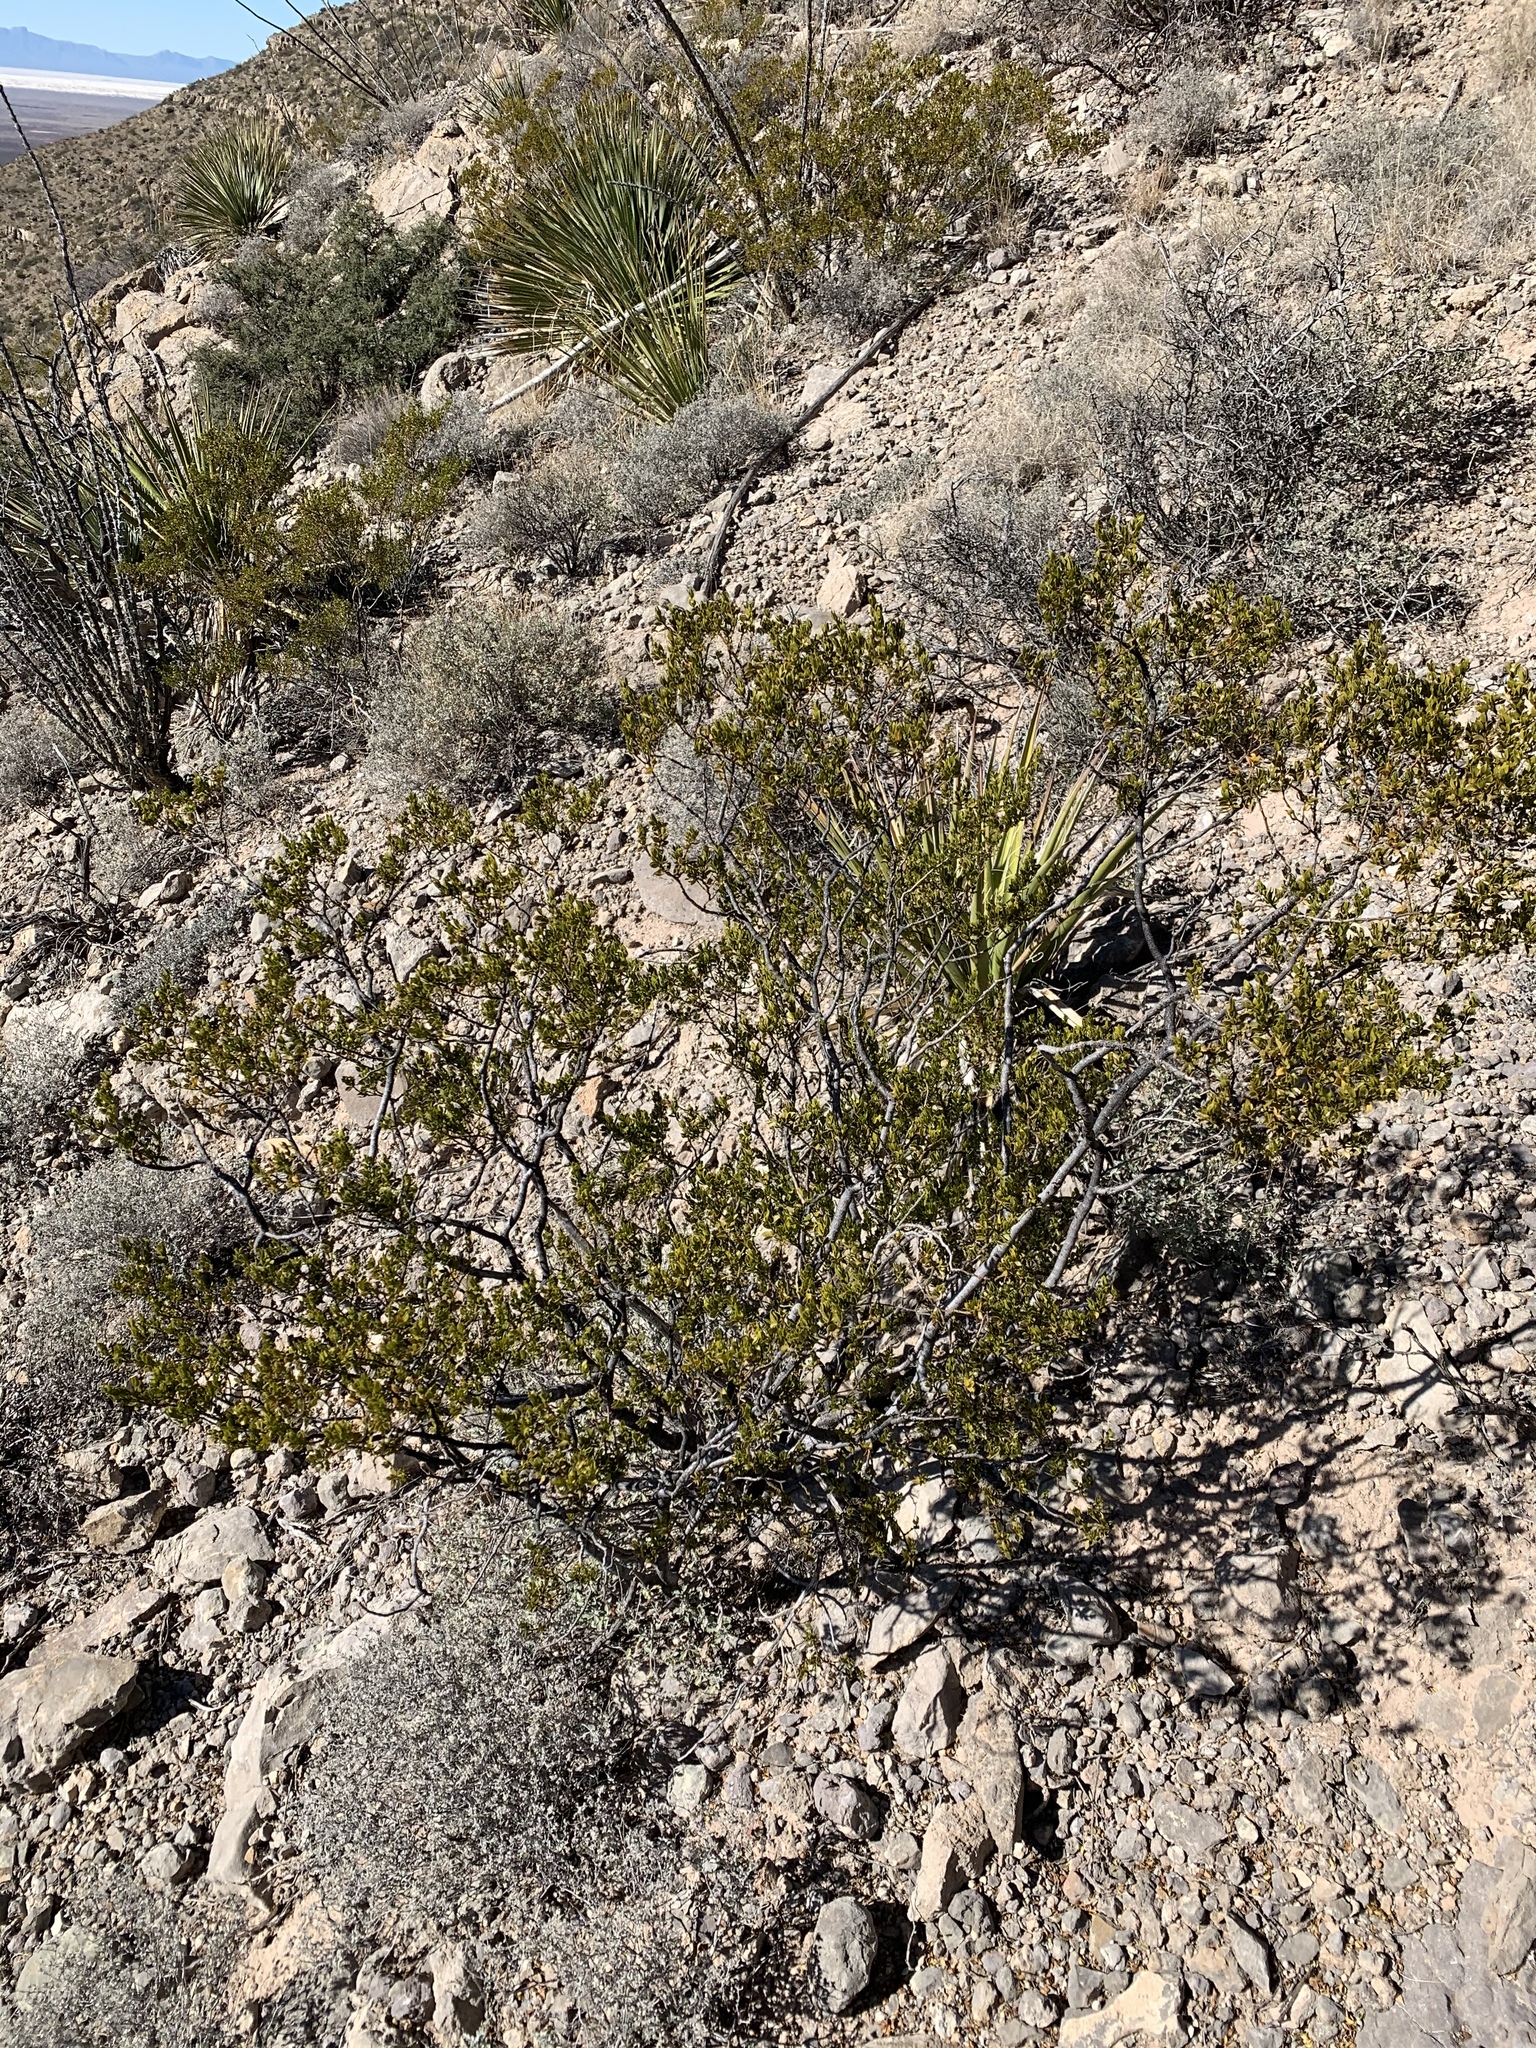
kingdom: Plantae
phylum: Tracheophyta
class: Magnoliopsida
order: Zygophyllales
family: Zygophyllaceae
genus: Larrea
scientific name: Larrea tridentata
